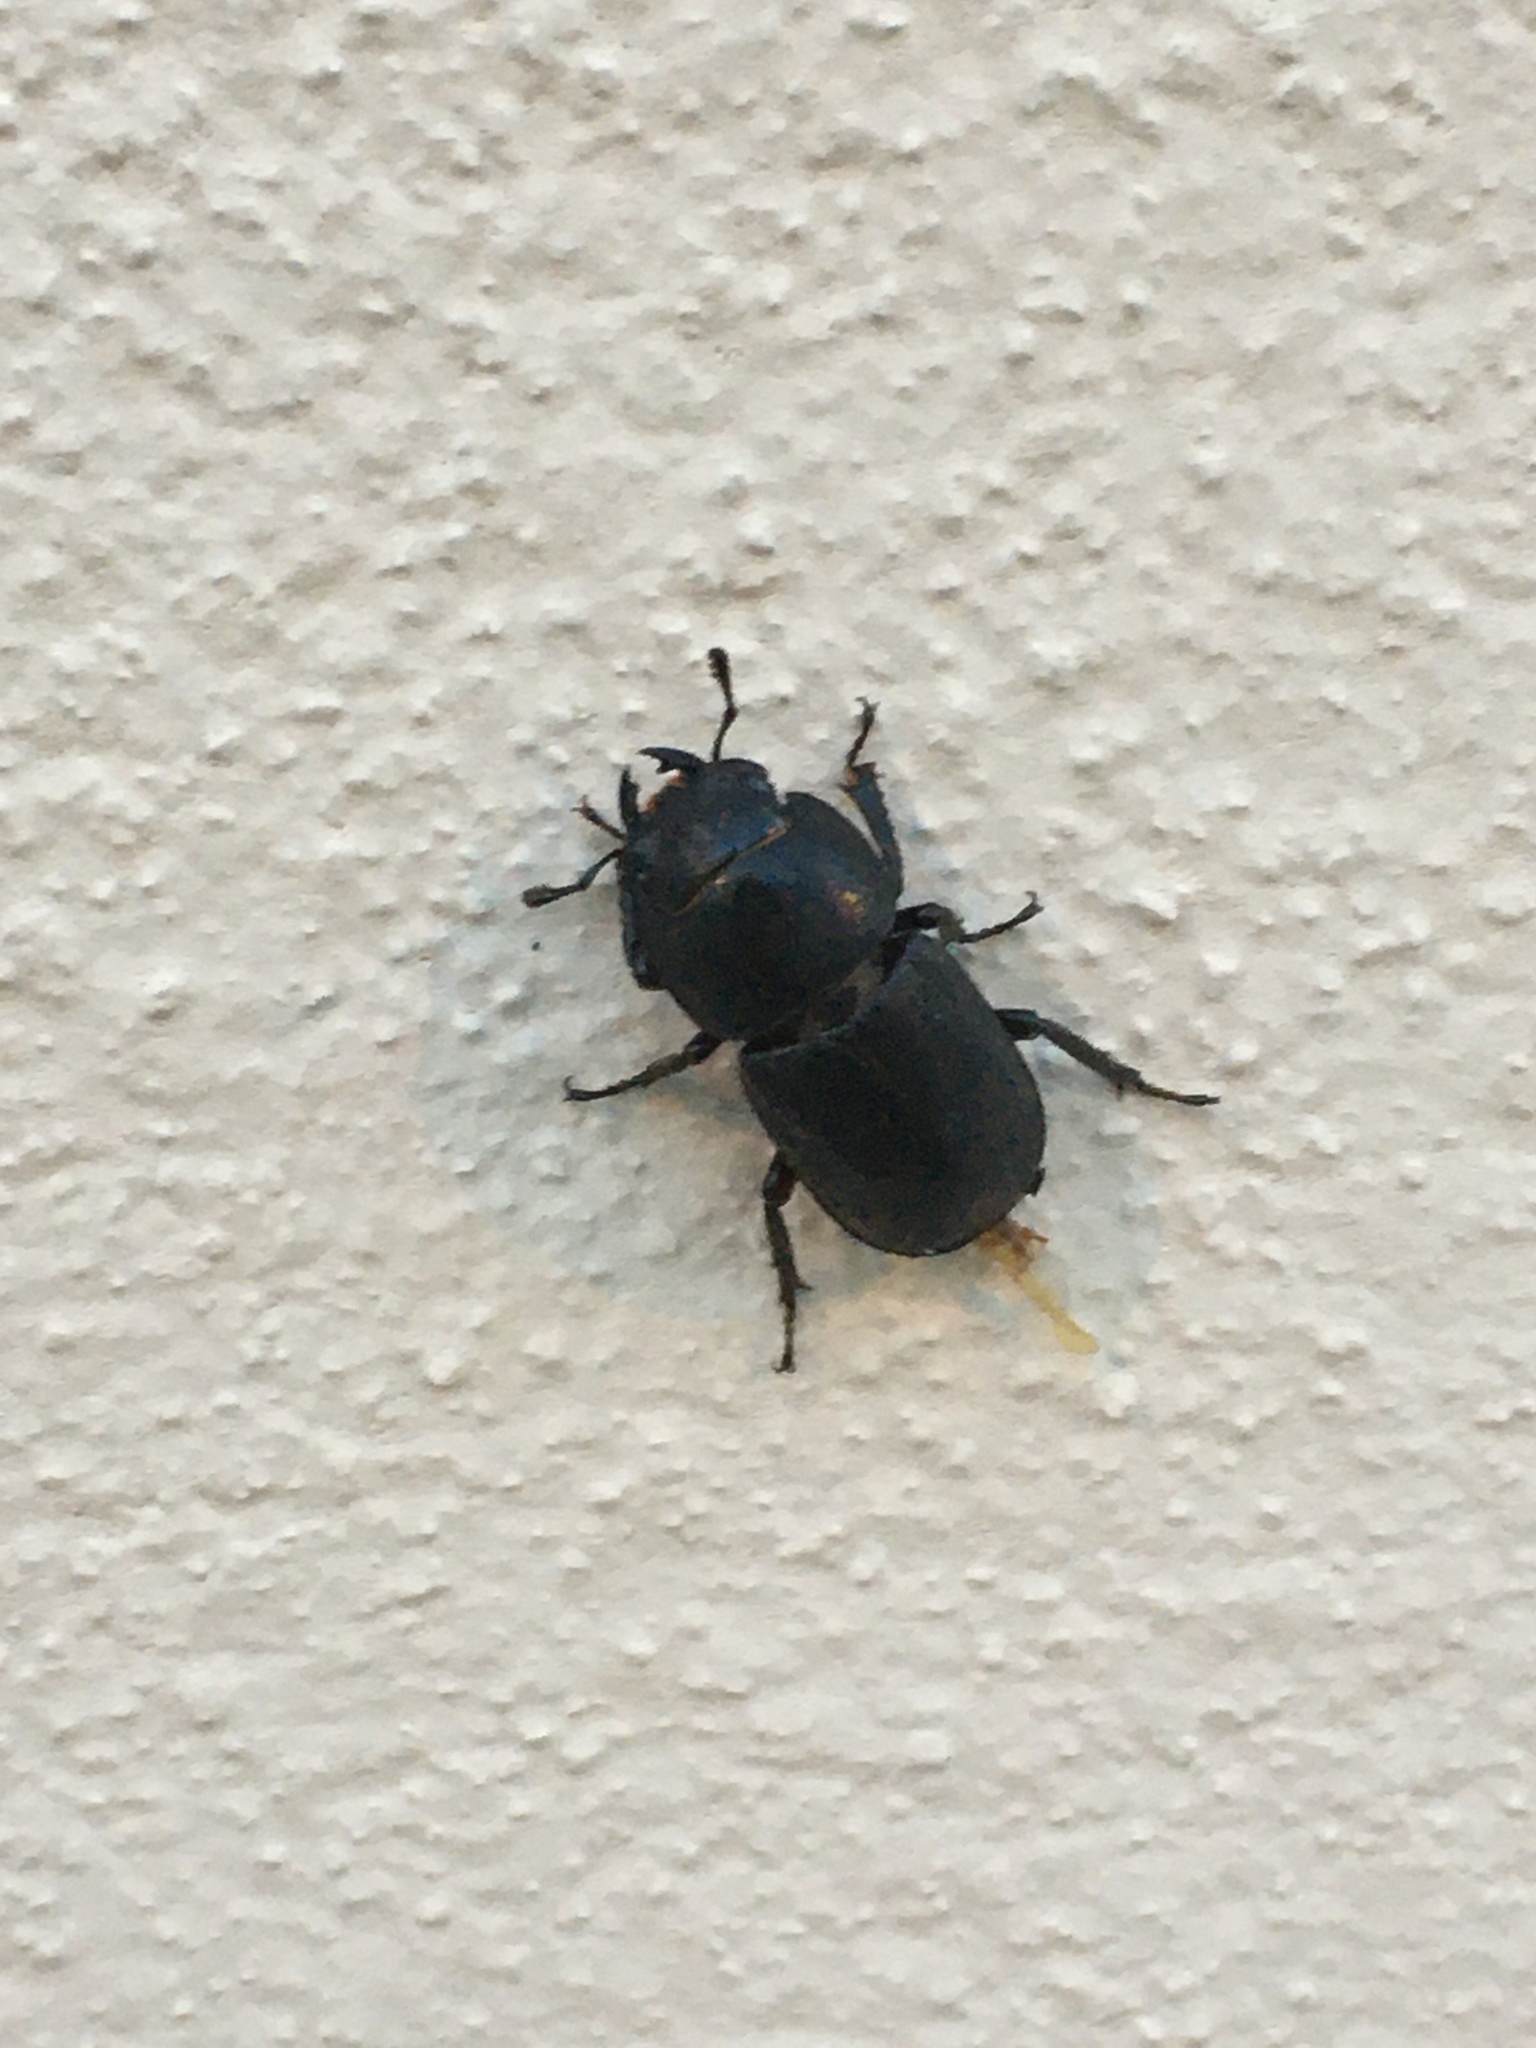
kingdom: Animalia
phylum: Arthropoda
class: Insecta
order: Coleoptera
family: Lucanidae
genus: Dorcus
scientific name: Dorcus parallelipipedus
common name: Lesser stag beetle
